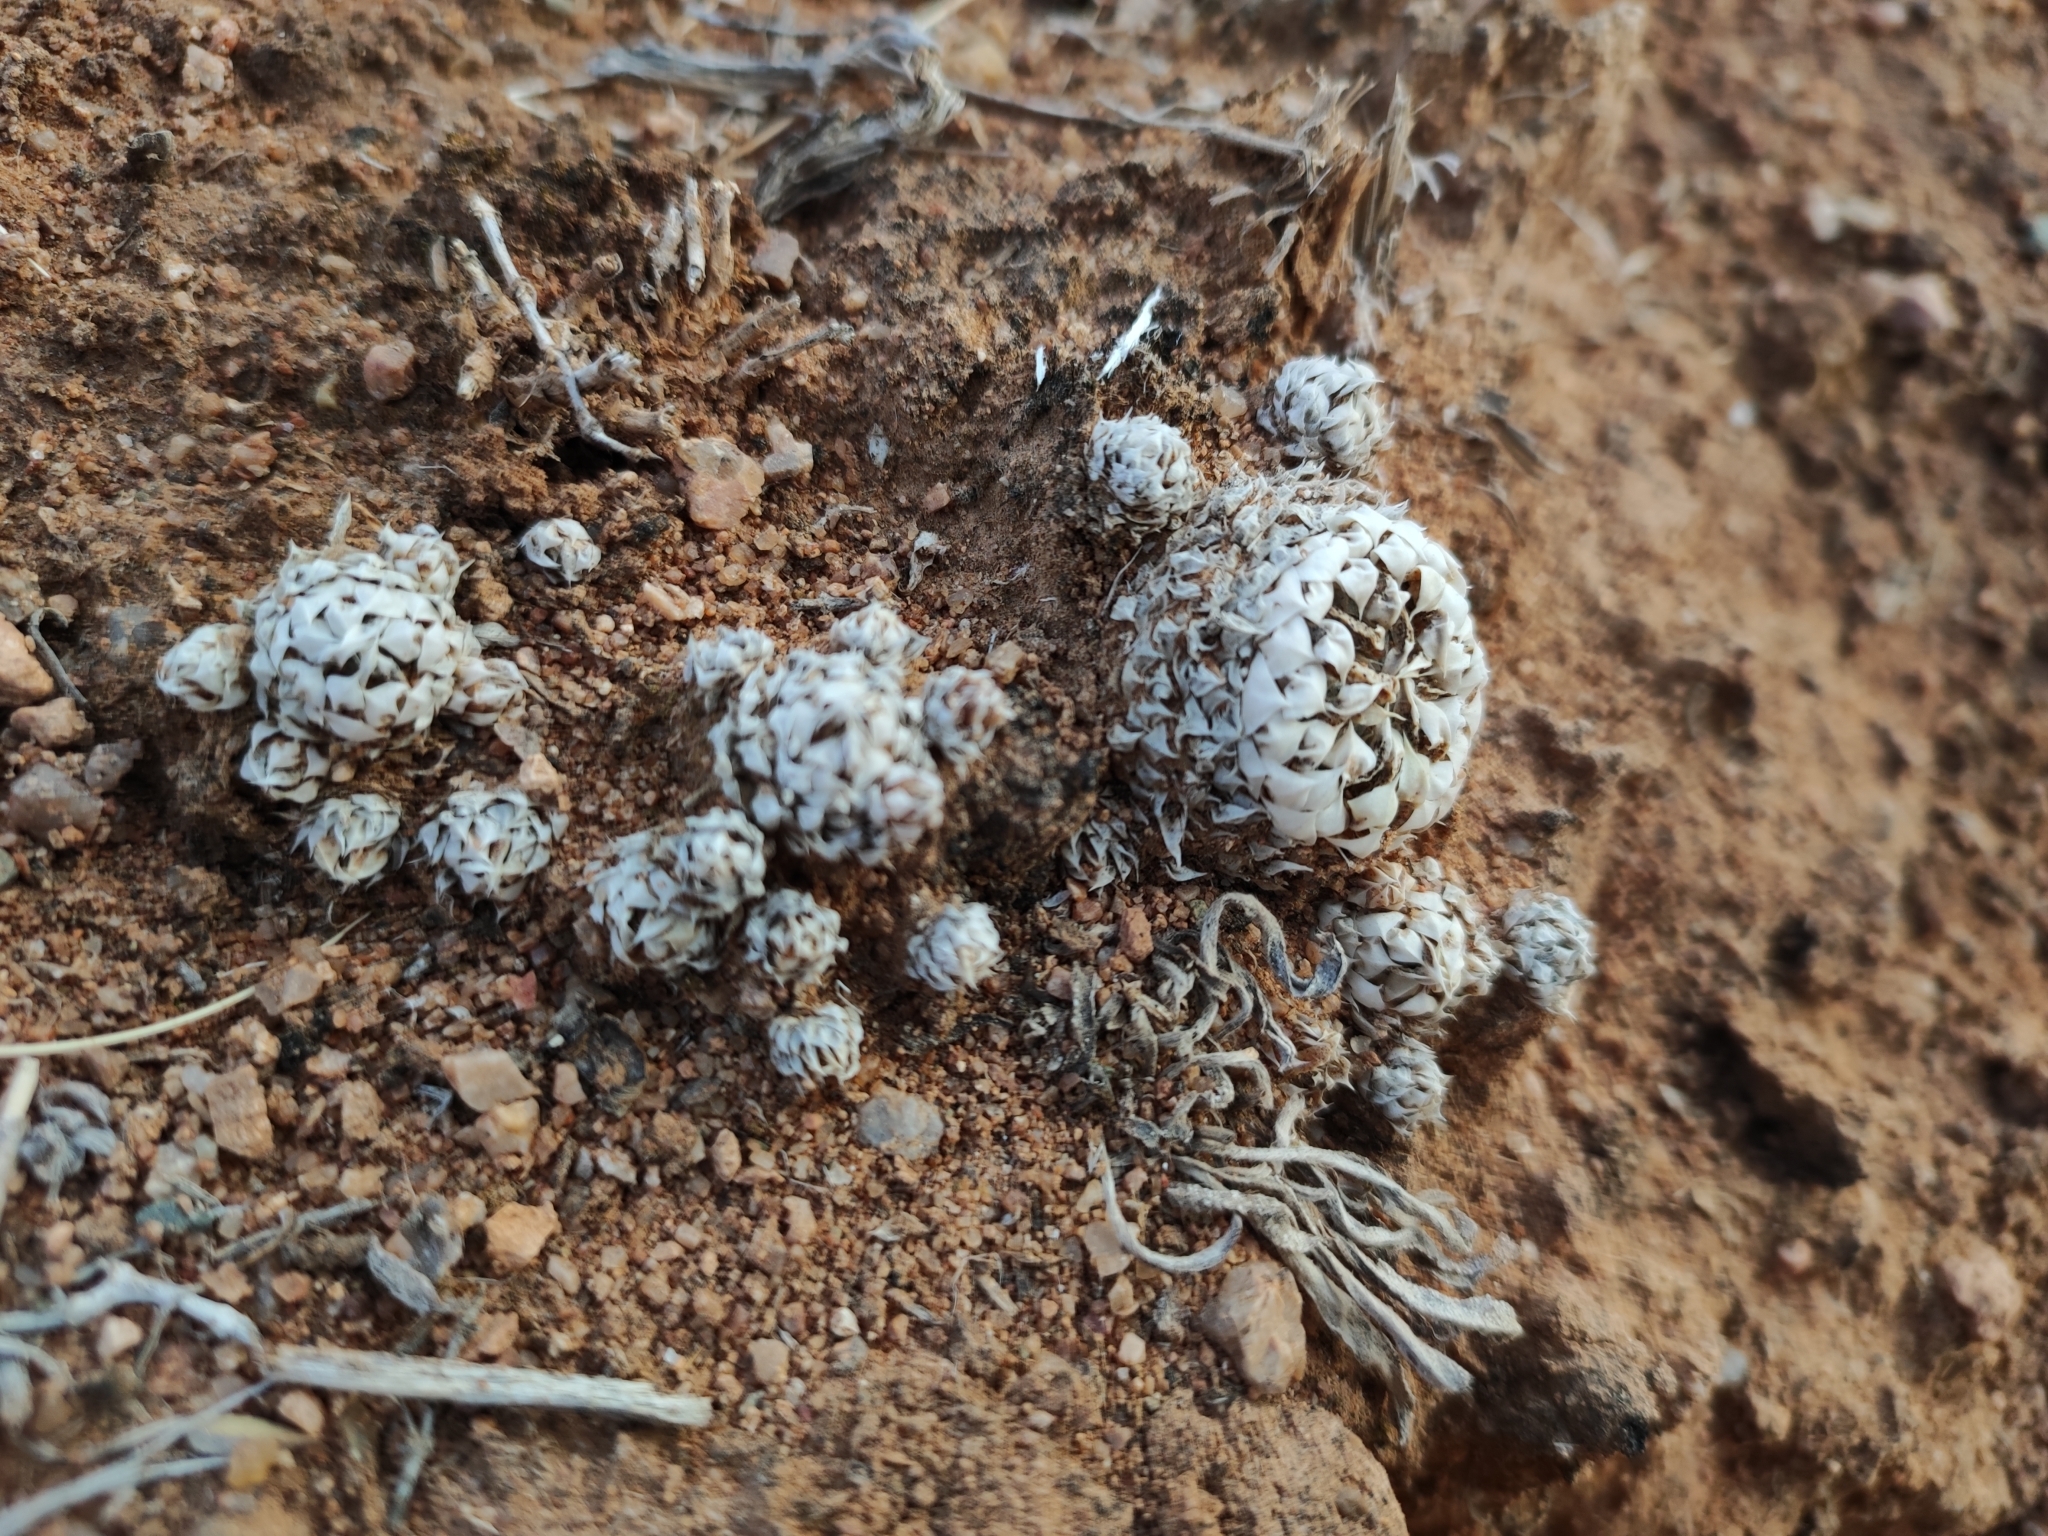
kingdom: Plantae
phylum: Tracheophyta
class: Magnoliopsida
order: Saxifragales
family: Crassulaceae
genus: Orostachys
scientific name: Orostachys thyrsiflora
